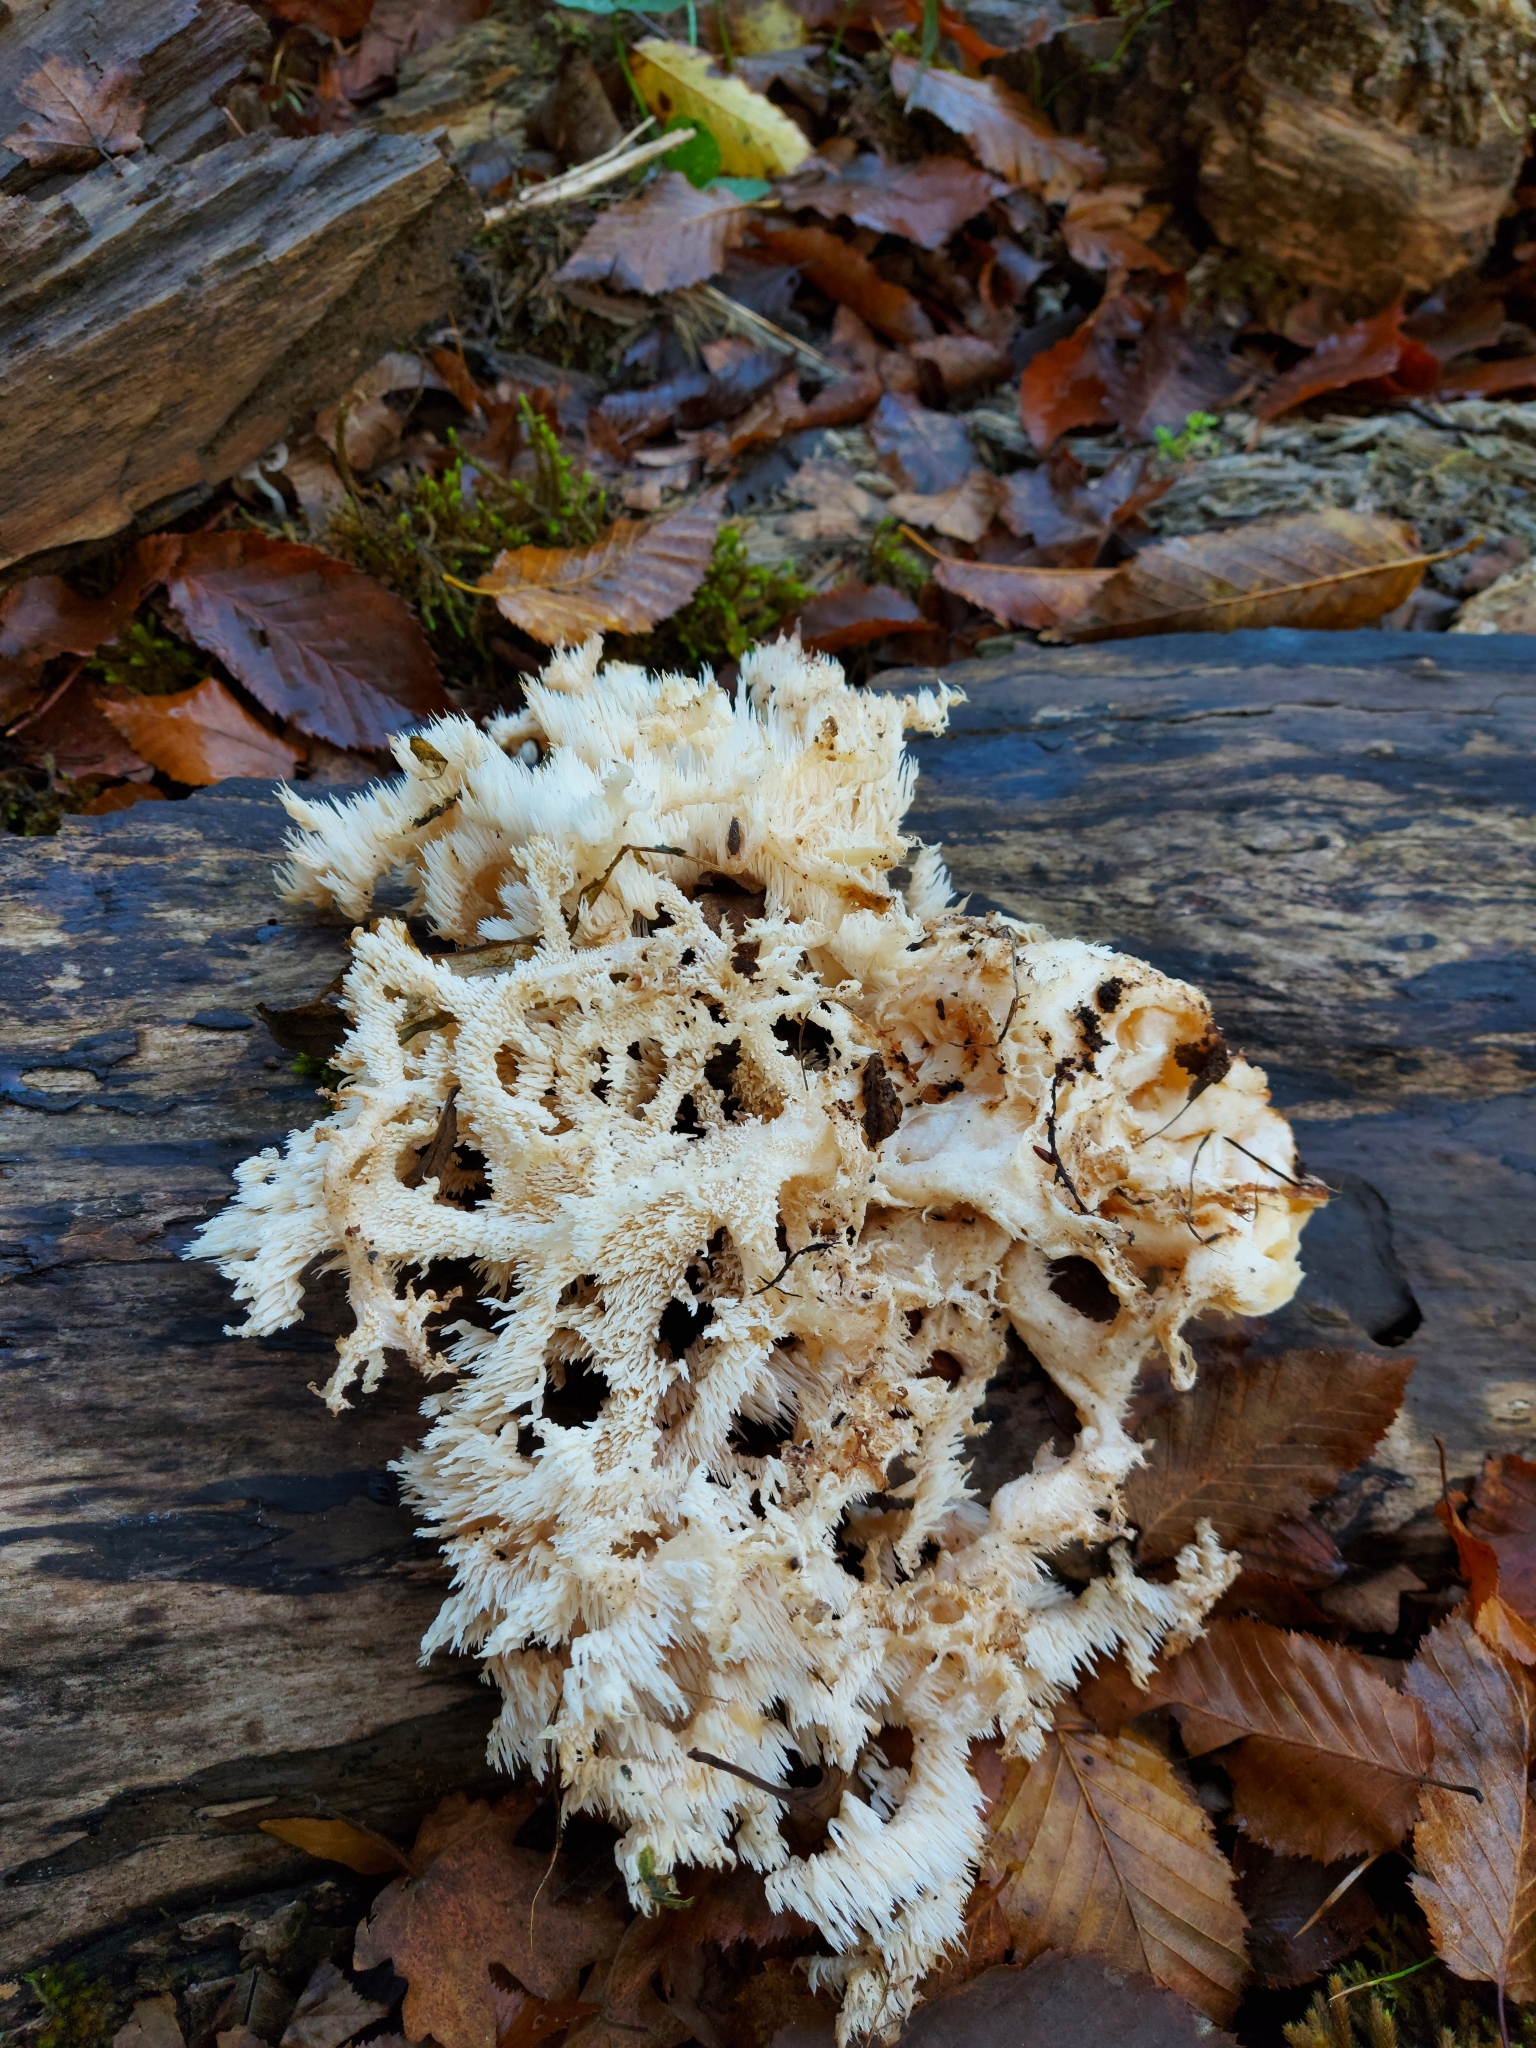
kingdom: Fungi
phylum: Basidiomycota
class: Agaricomycetes
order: Russulales
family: Hericiaceae
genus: Hericium
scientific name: Hericium coralloides
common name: Coral tooth
